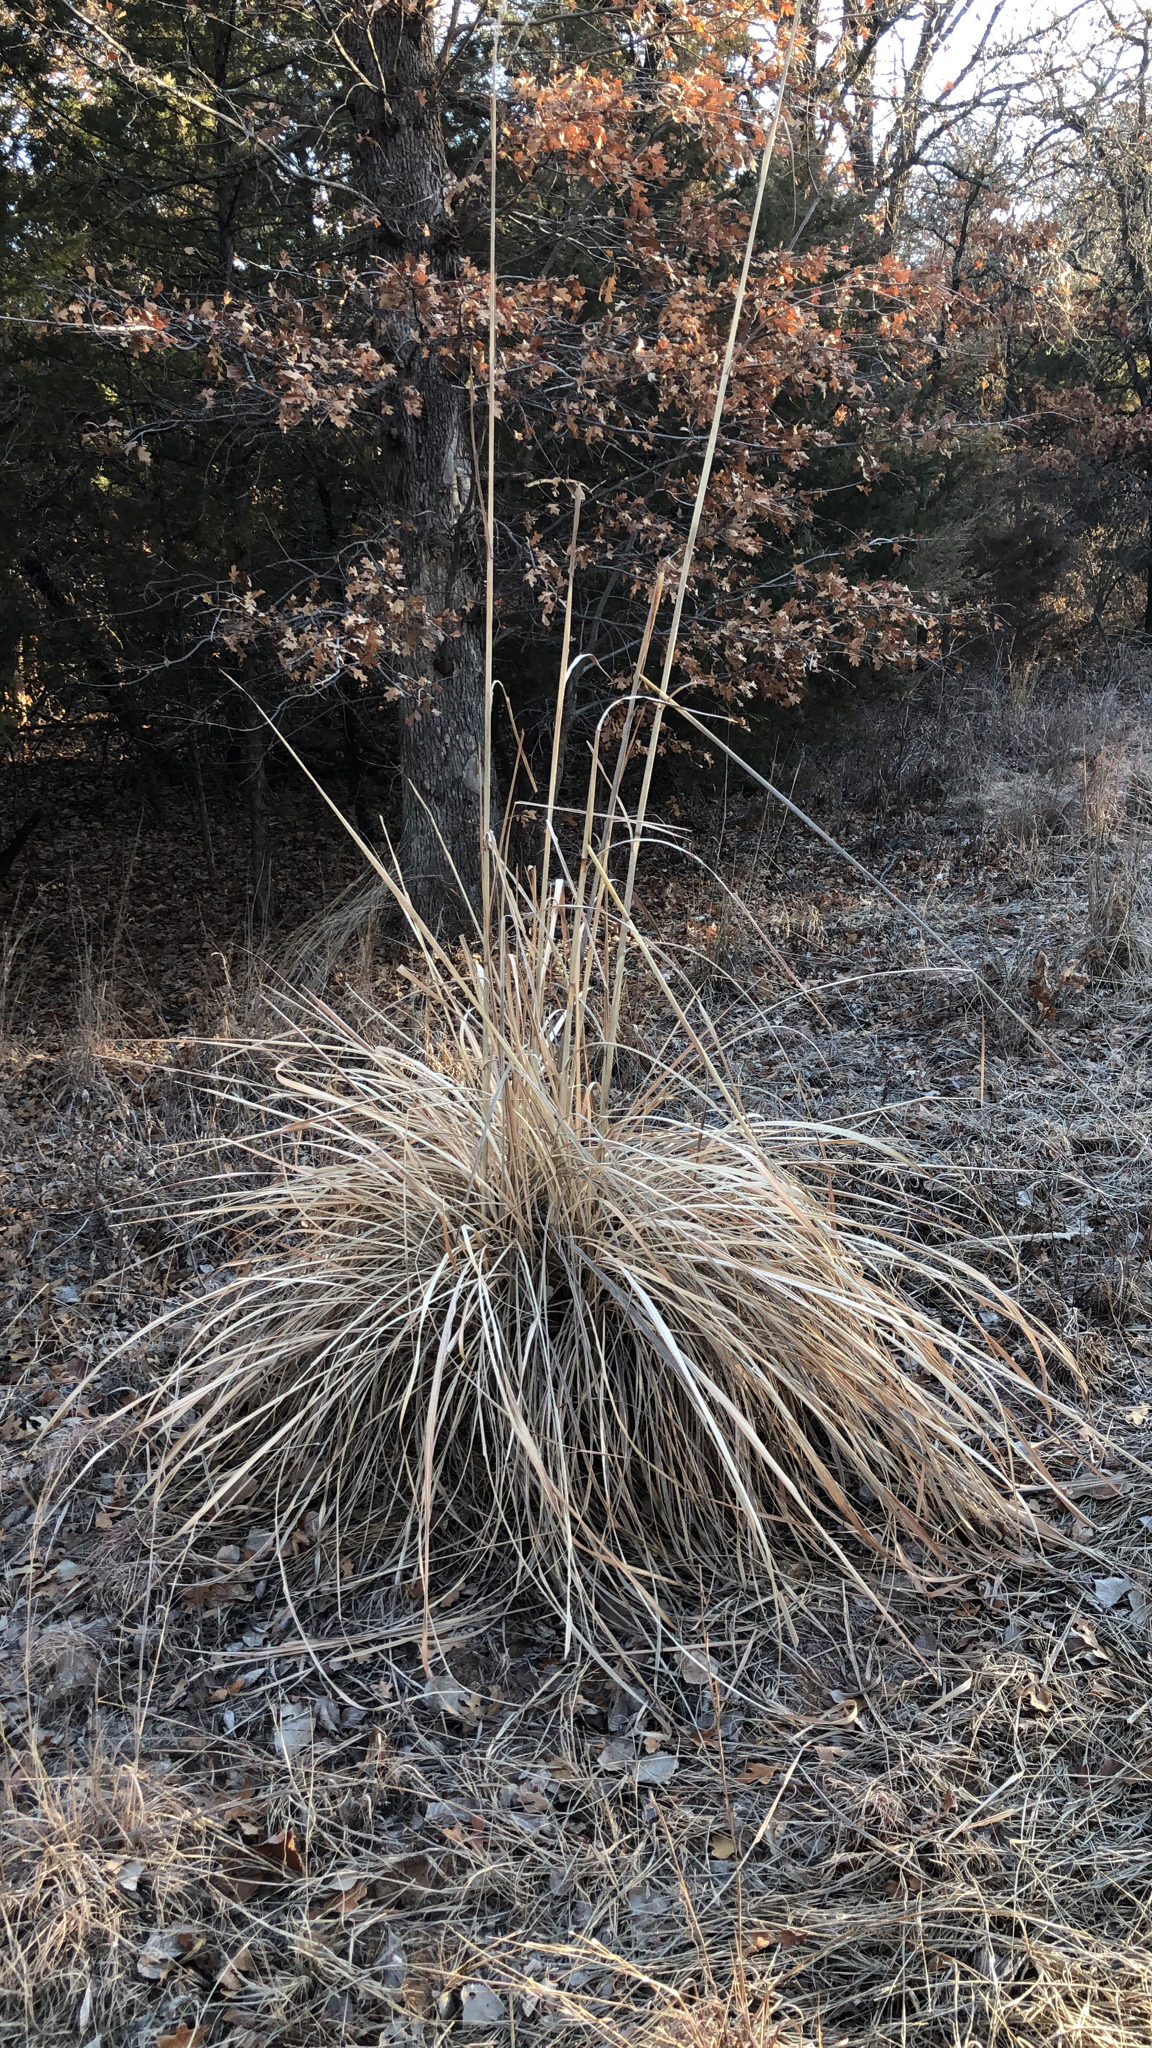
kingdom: Plantae
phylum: Tracheophyta
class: Liliopsida
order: Poales
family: Poaceae
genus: Tripidium
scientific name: Tripidium ravennae
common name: Ravenna grass
